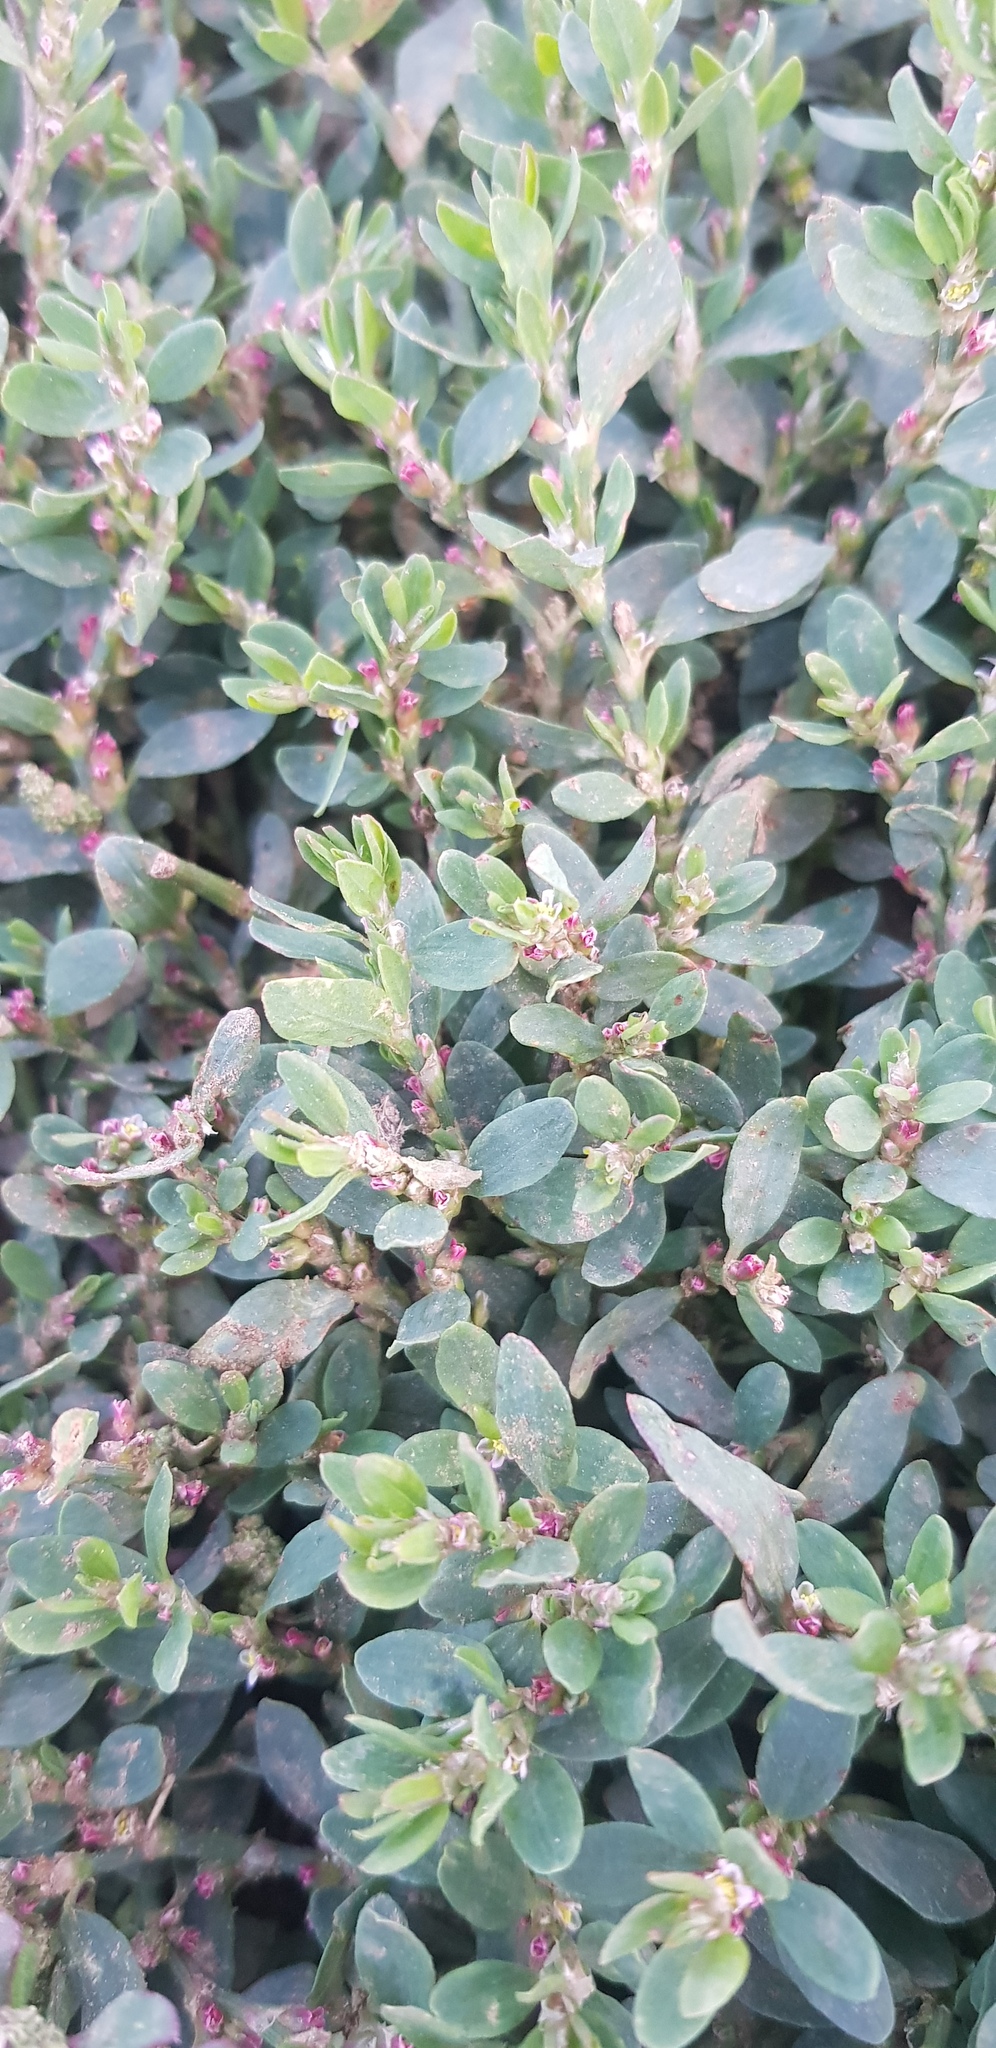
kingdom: Plantae
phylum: Tracheophyta
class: Magnoliopsida
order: Caryophyllales
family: Polygonaceae
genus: Polygonum
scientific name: Polygonum aviculare
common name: Prostrate knotweed
